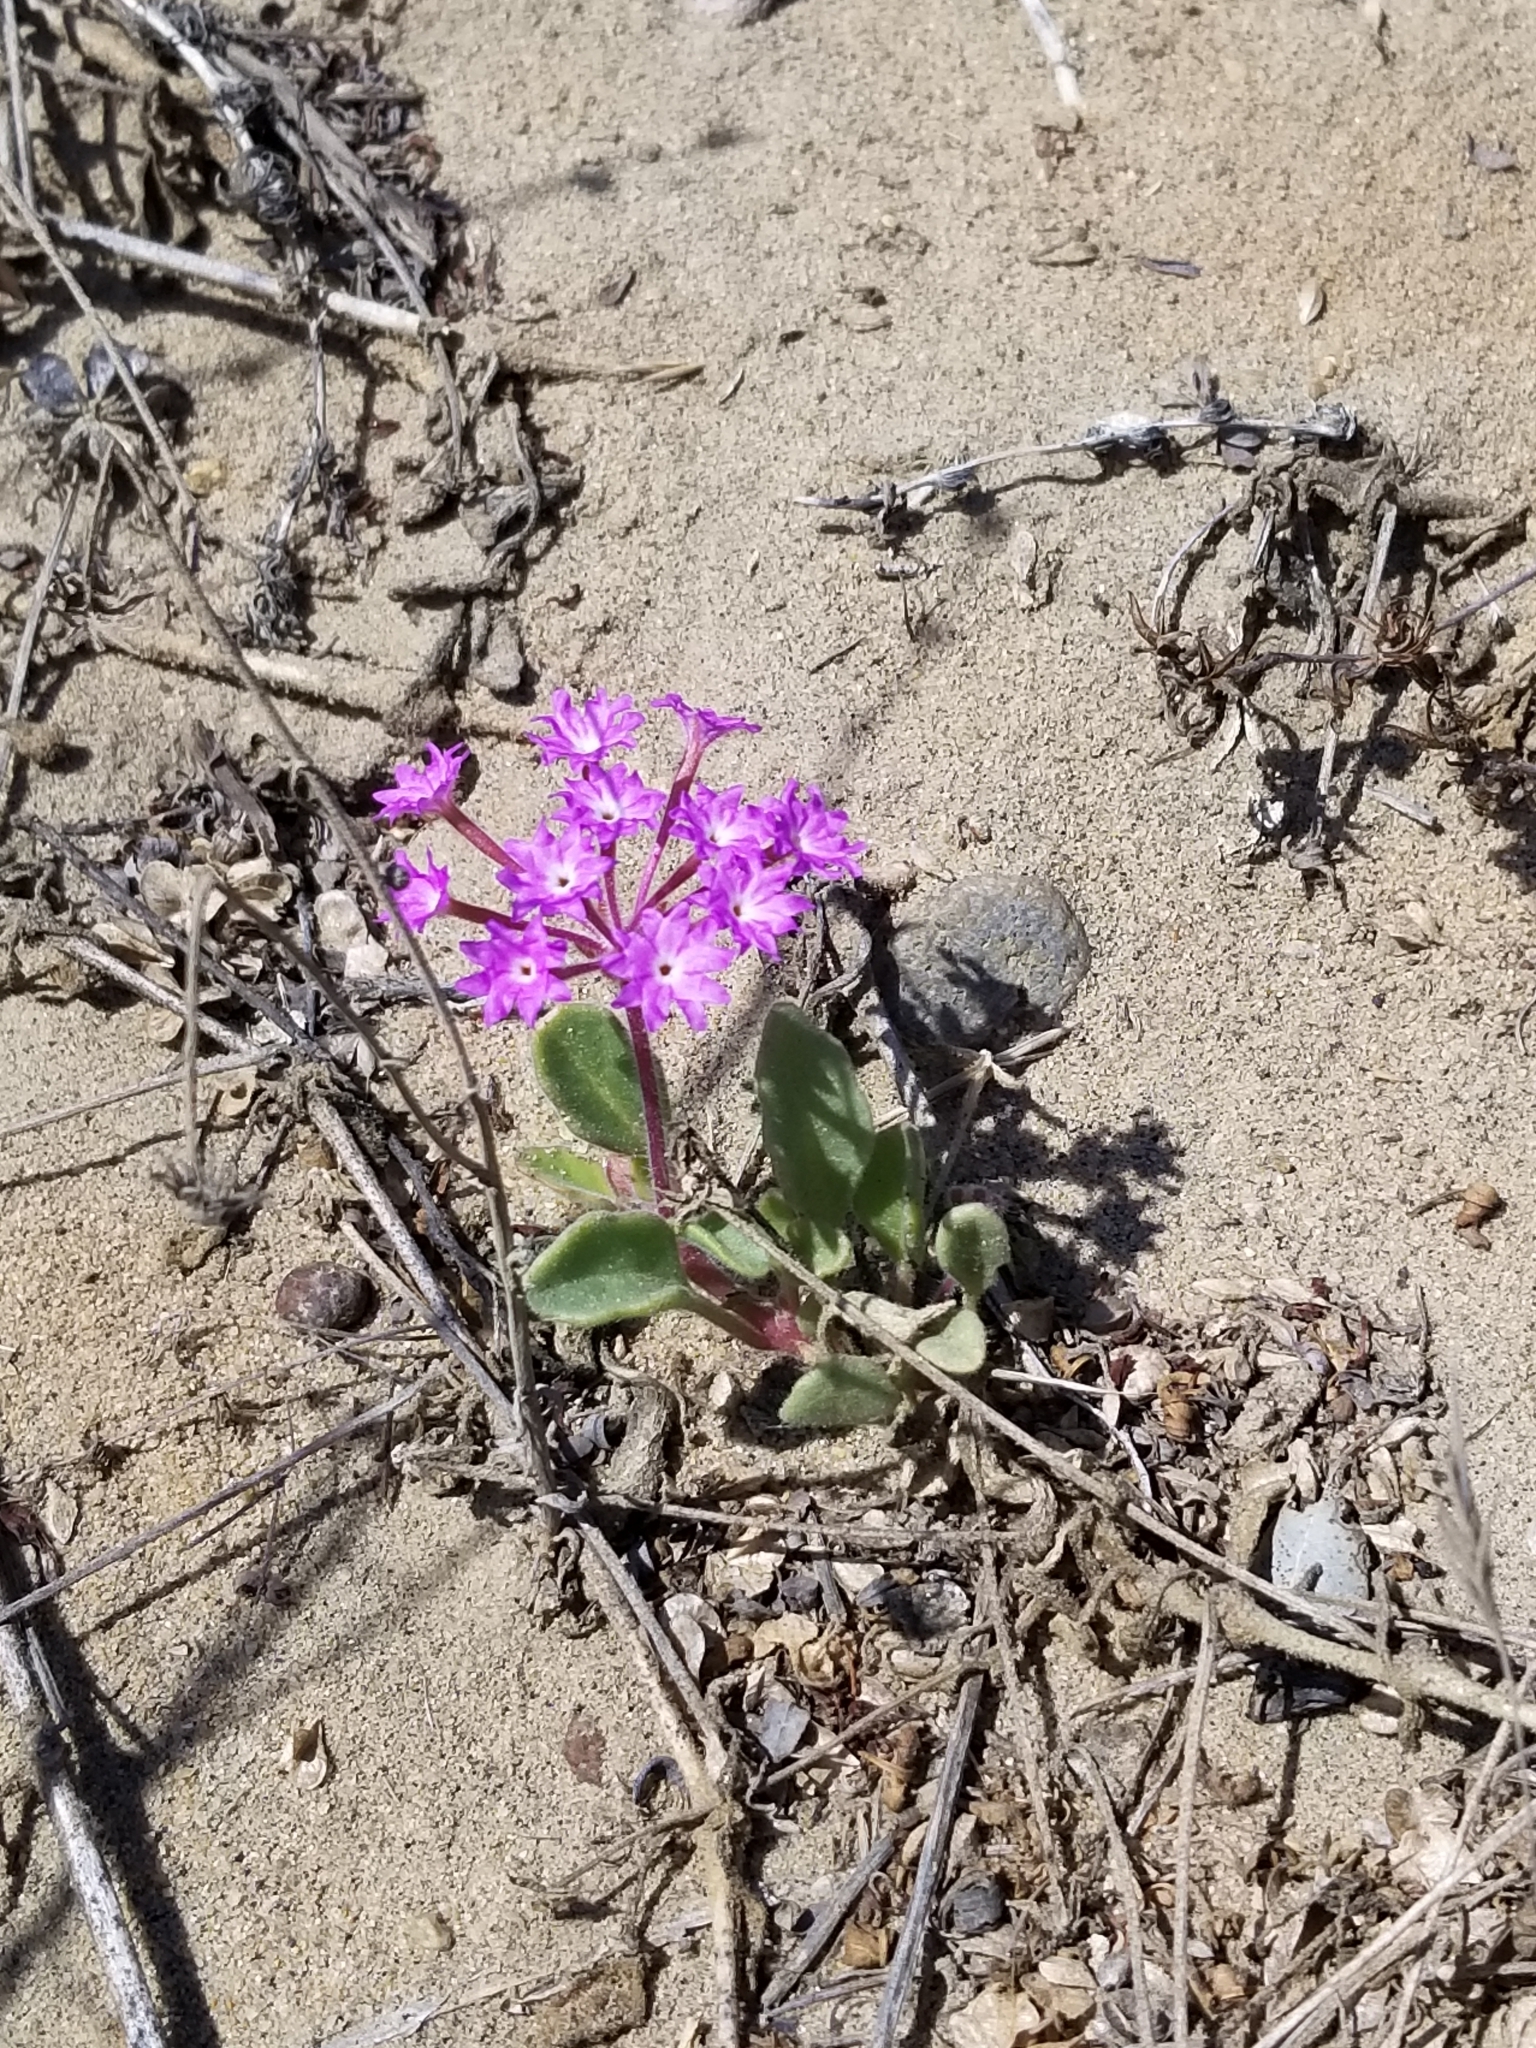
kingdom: Plantae
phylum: Tracheophyta
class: Magnoliopsida
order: Caryophyllales
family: Nyctaginaceae
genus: Abronia
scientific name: Abronia umbellata
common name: Sand-verbena
